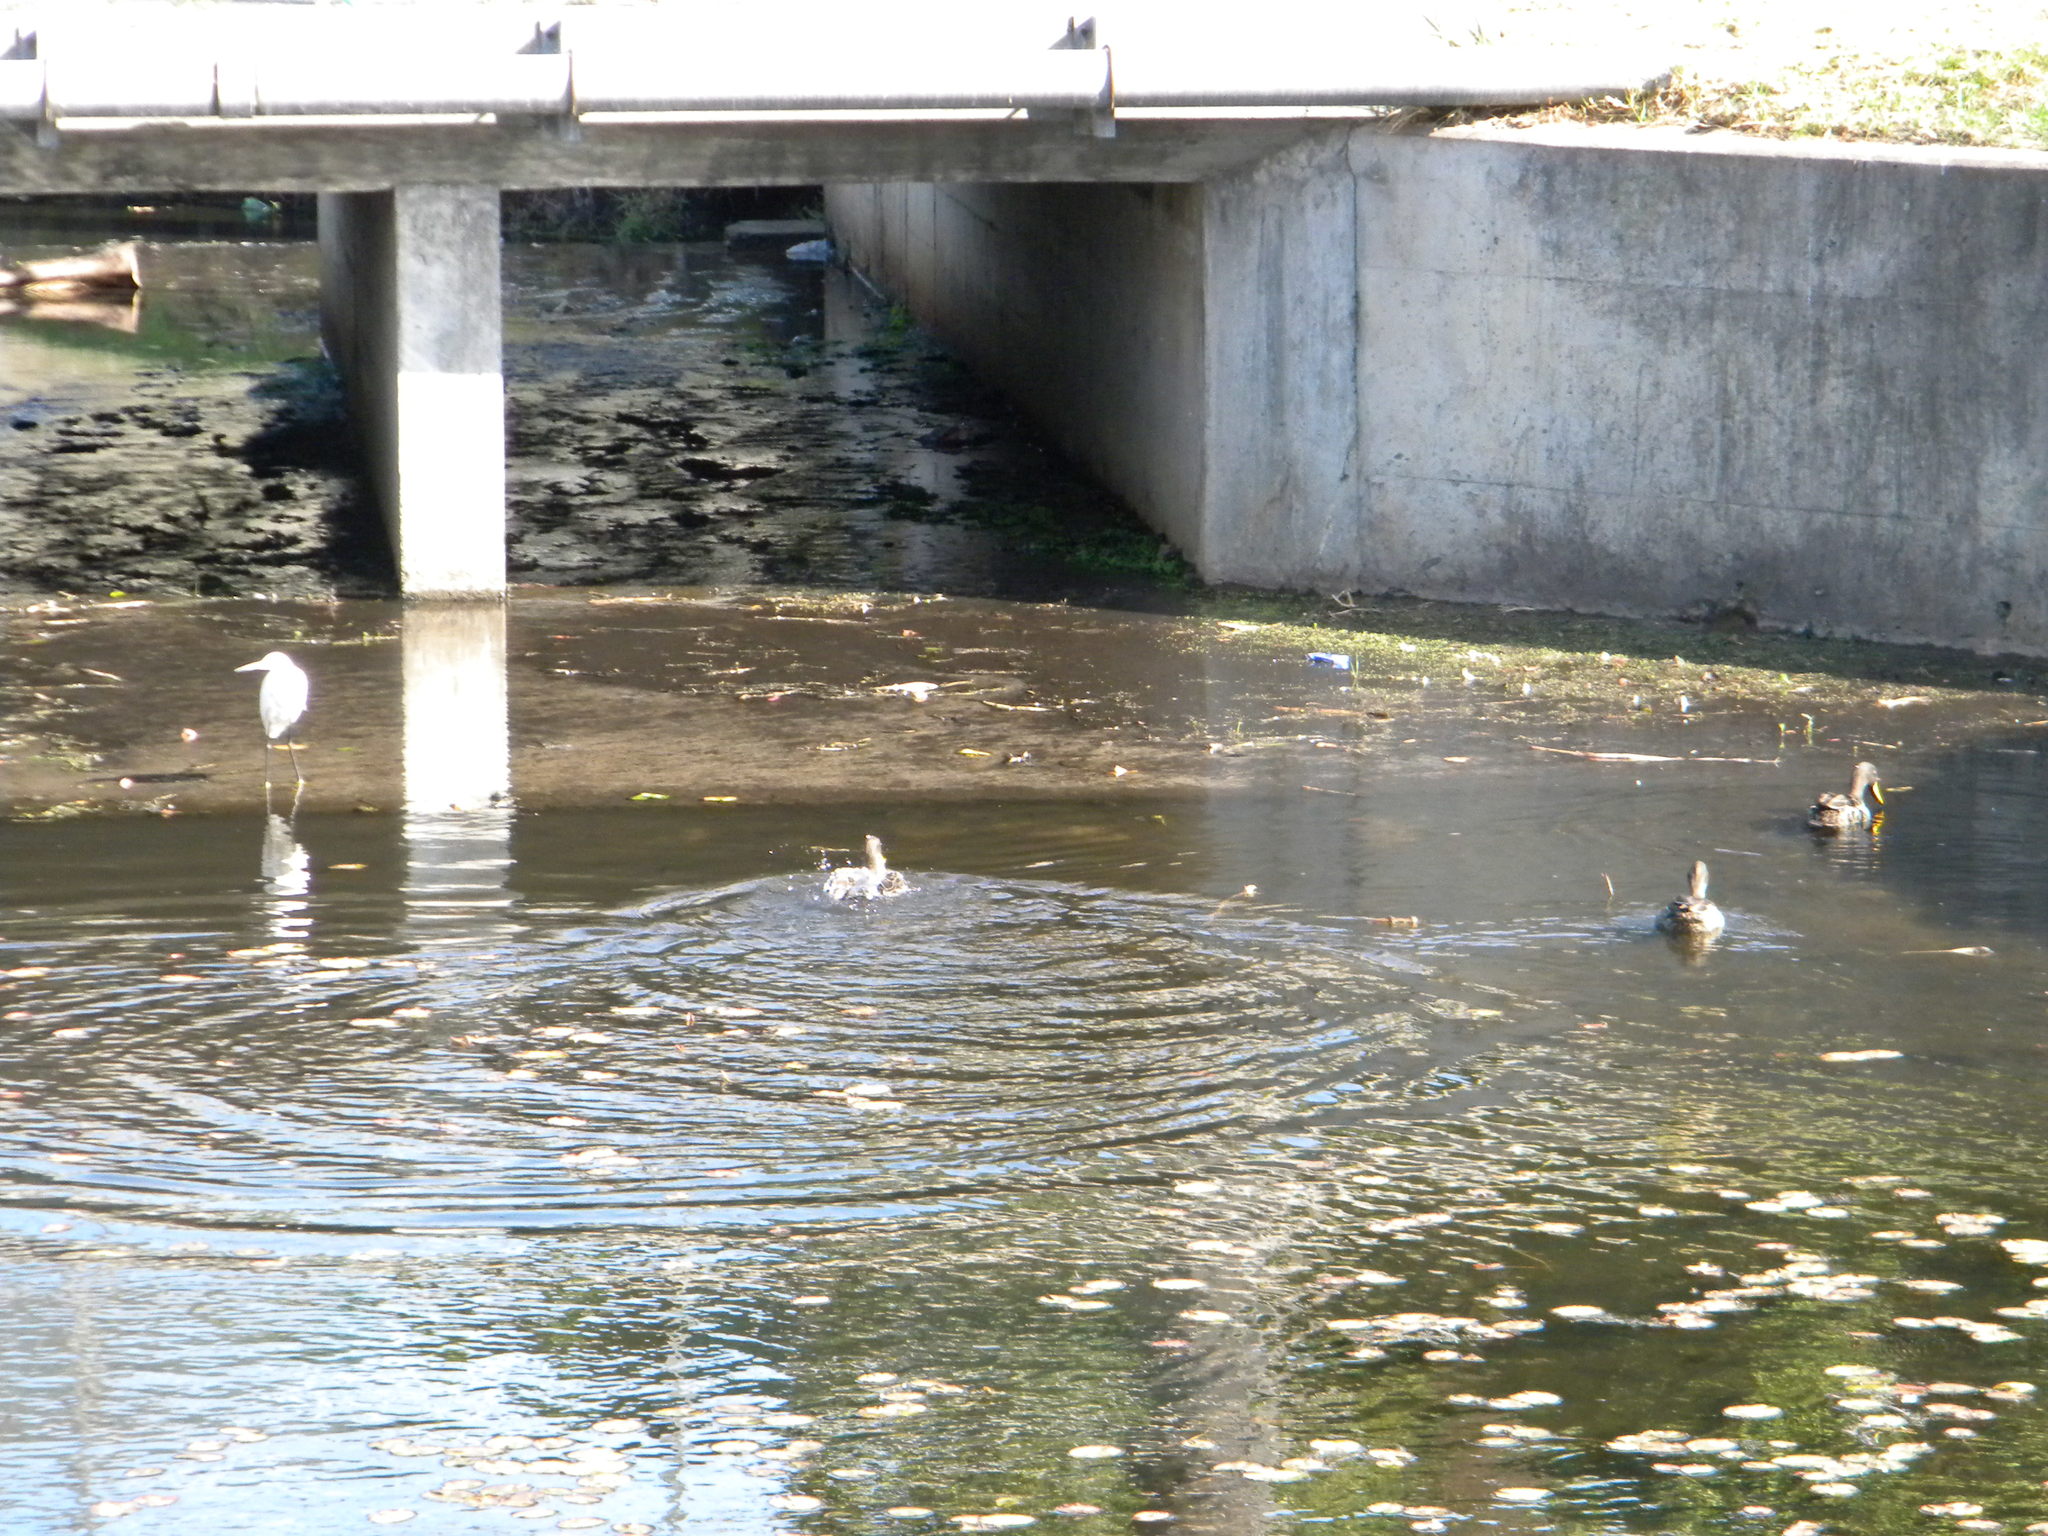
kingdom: Animalia
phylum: Chordata
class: Aves
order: Anseriformes
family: Anatidae
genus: Anas
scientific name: Anas undulata
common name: Yellow-billed duck
